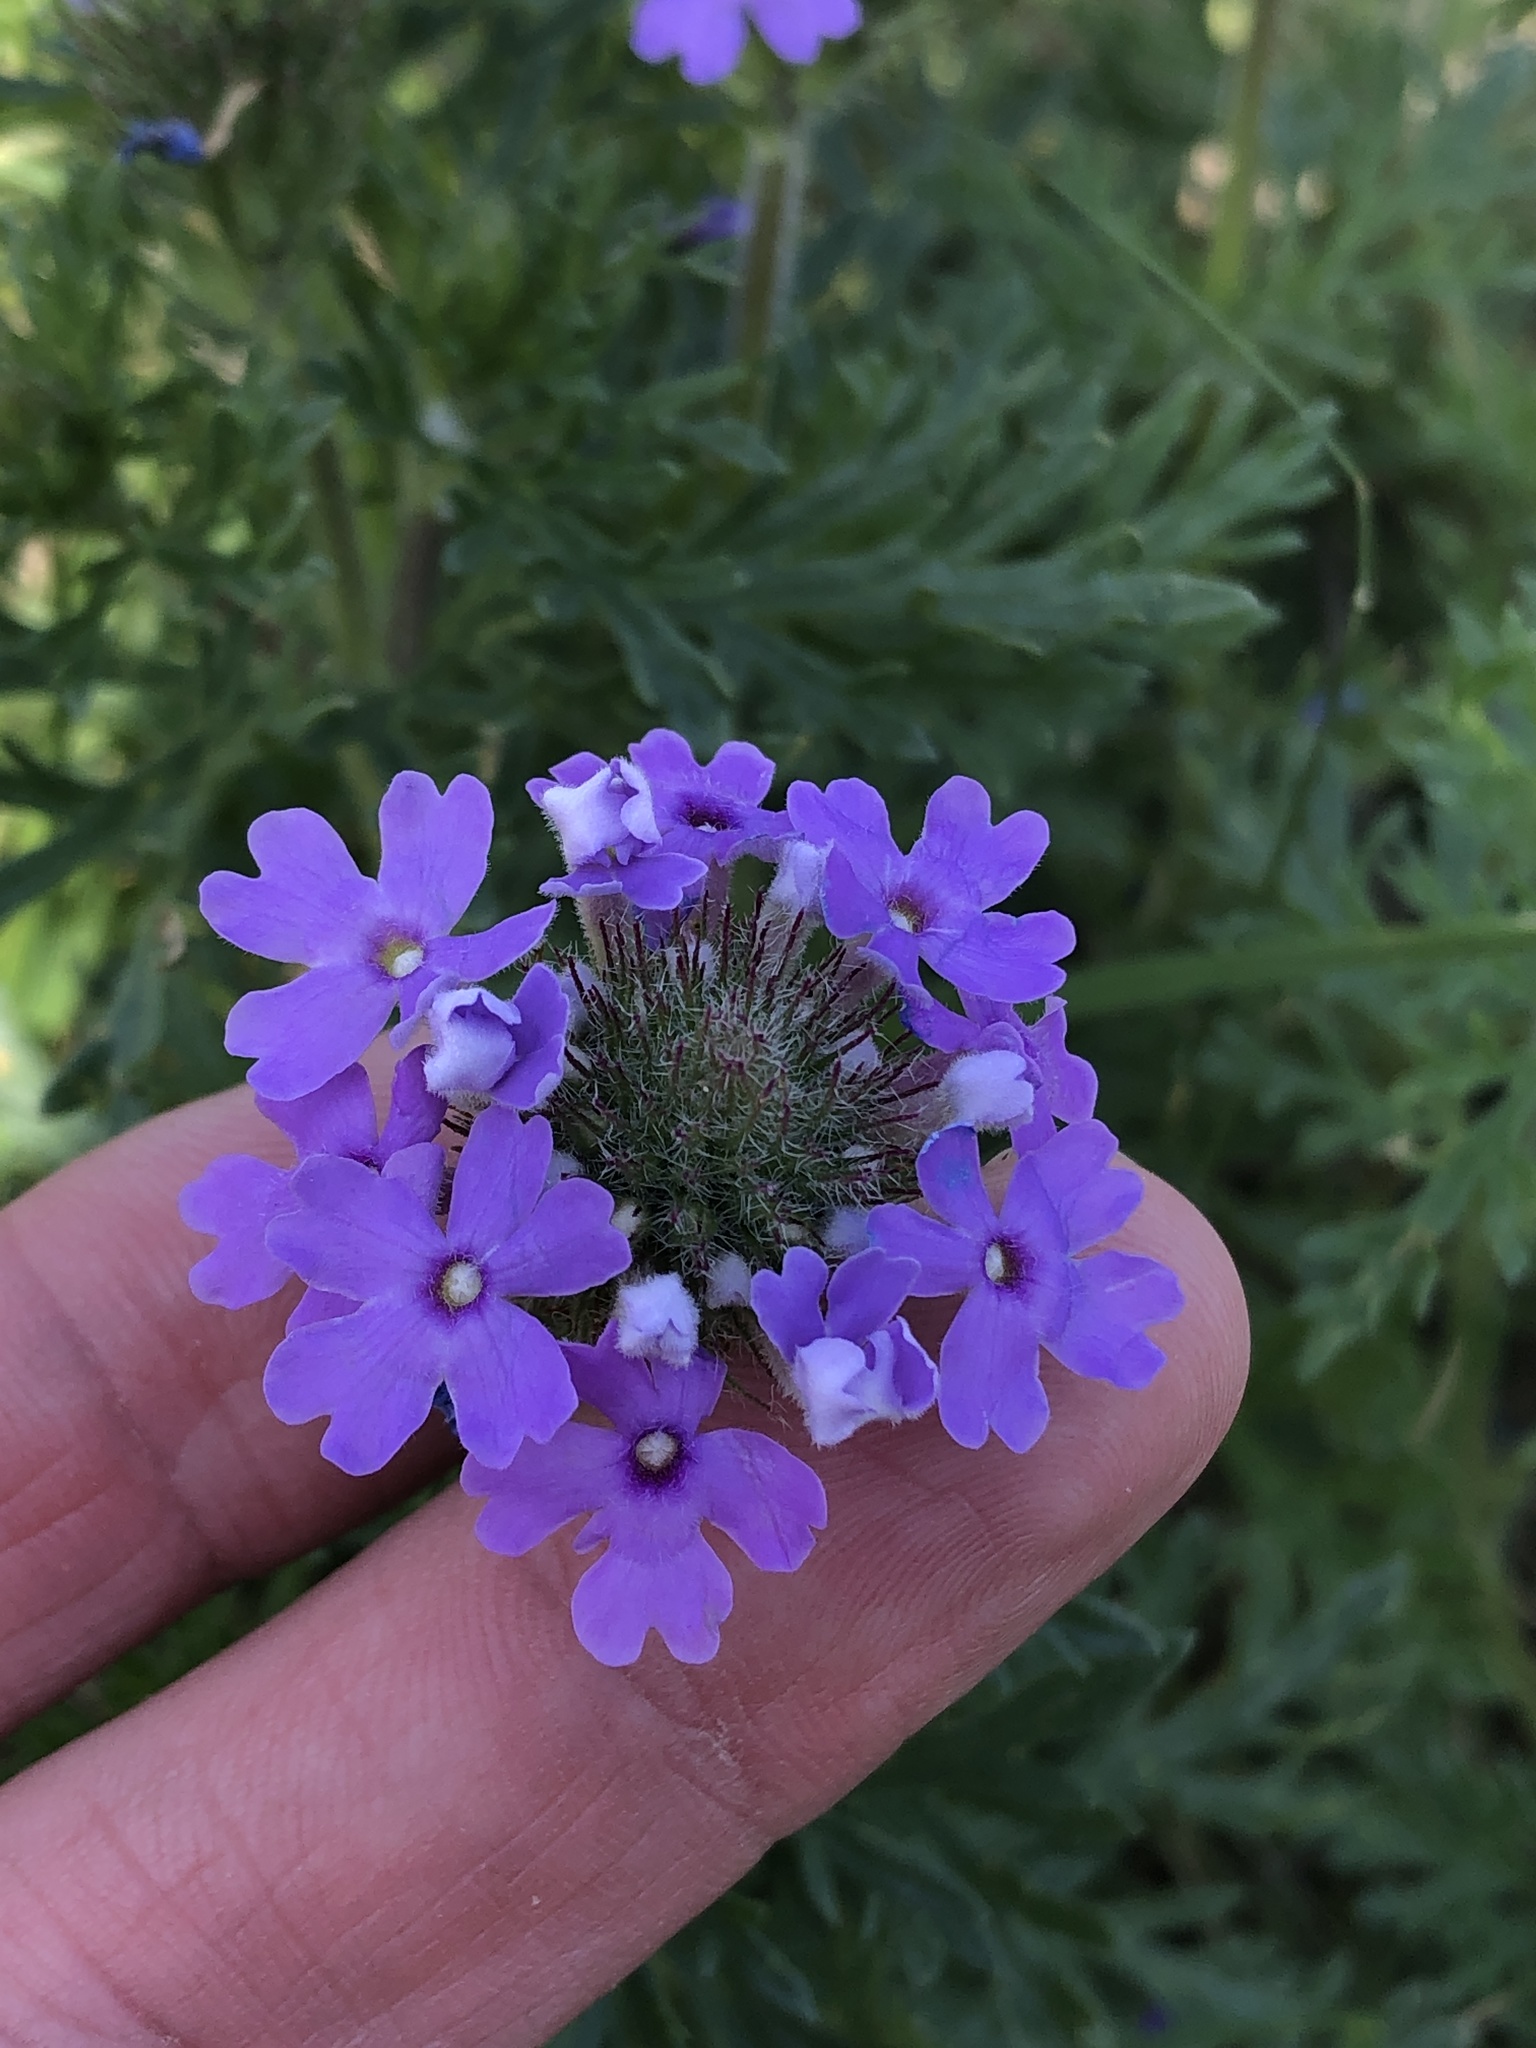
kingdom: Plantae
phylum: Tracheophyta
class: Magnoliopsida
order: Lamiales
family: Verbenaceae
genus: Verbena
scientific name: Verbena bipinnatifida
